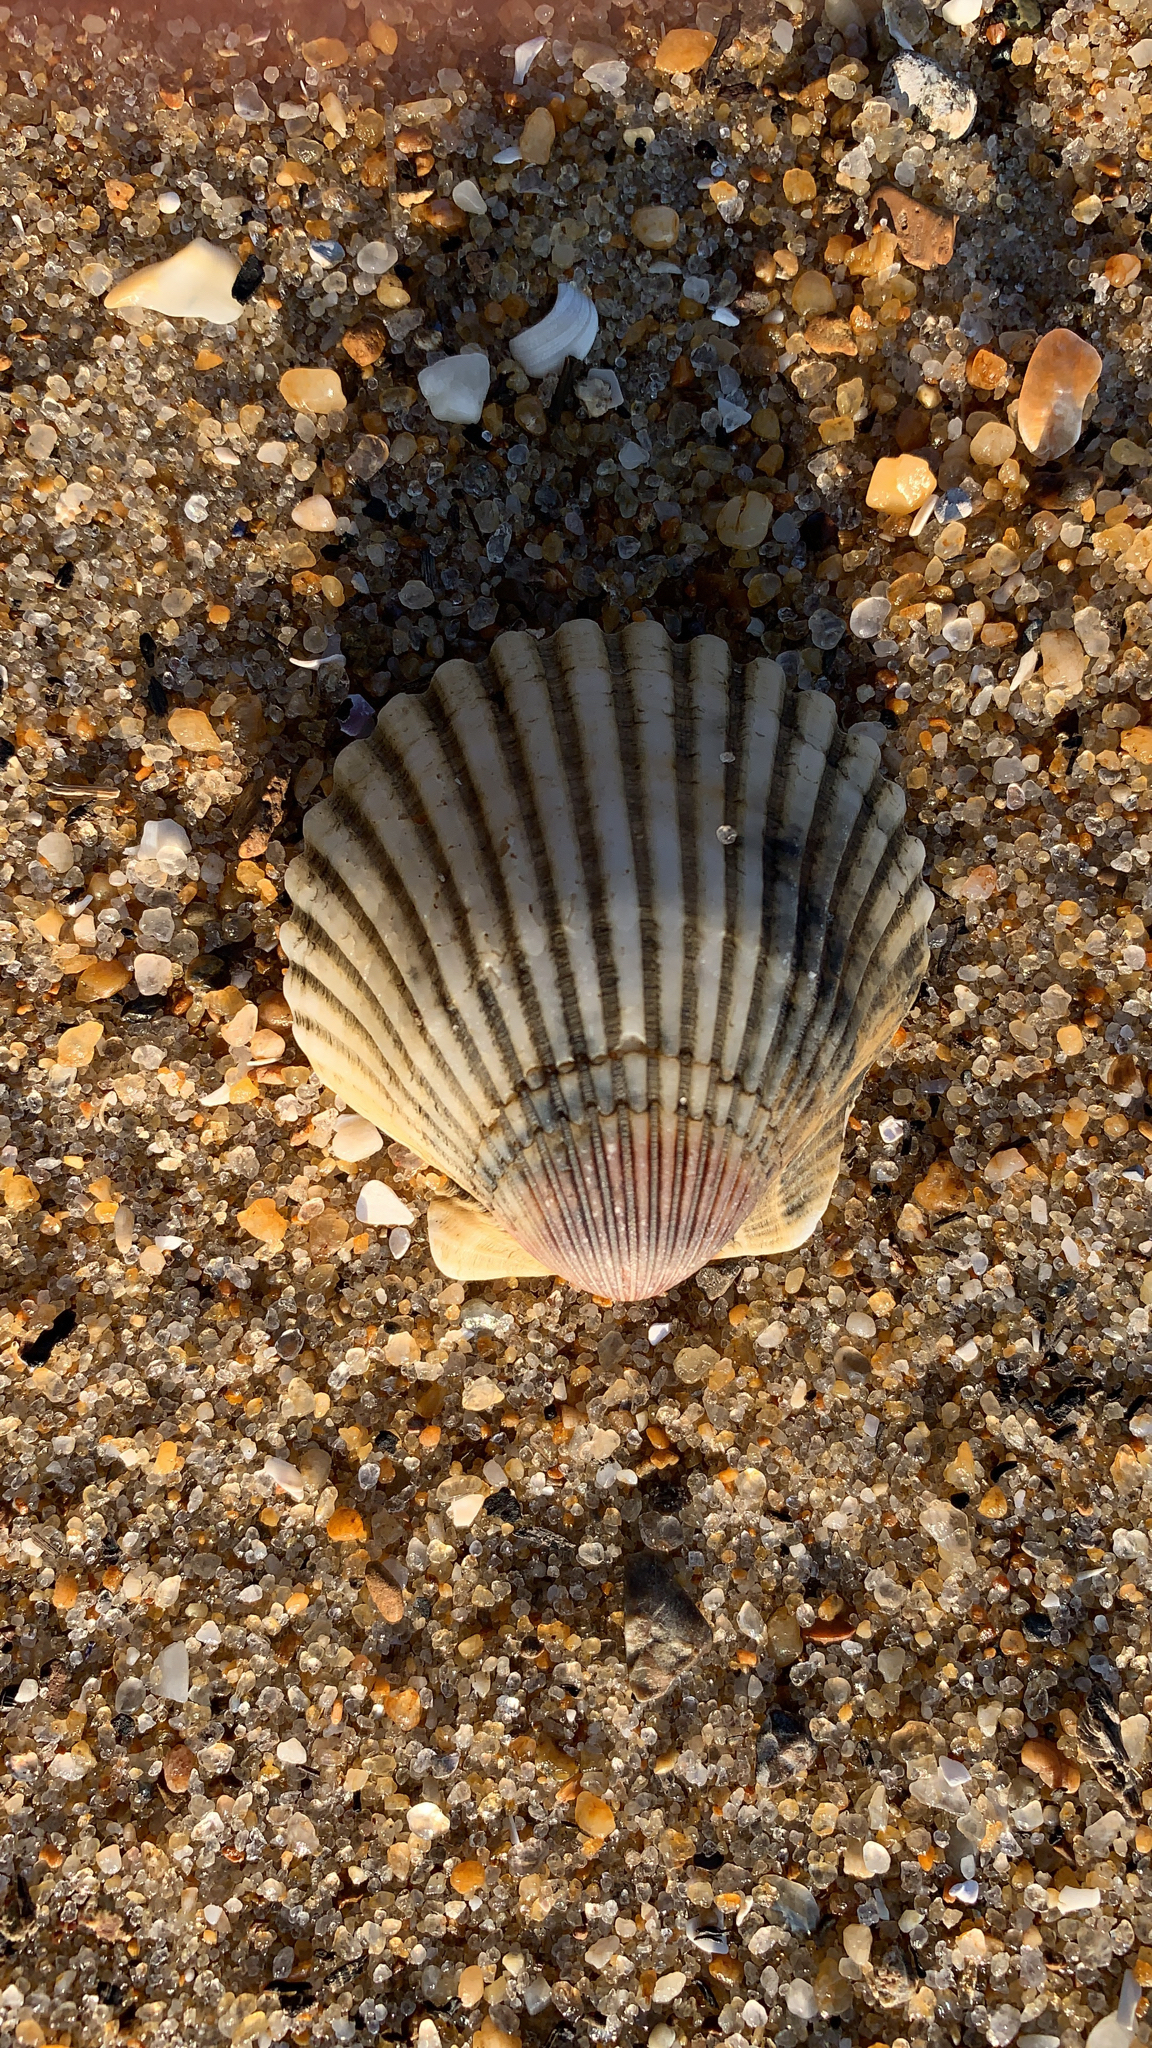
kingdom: Animalia
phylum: Mollusca
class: Bivalvia
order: Pectinida
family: Pectinidae
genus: Argopecten
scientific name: Argopecten irradians
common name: Atlantic bay scallop
